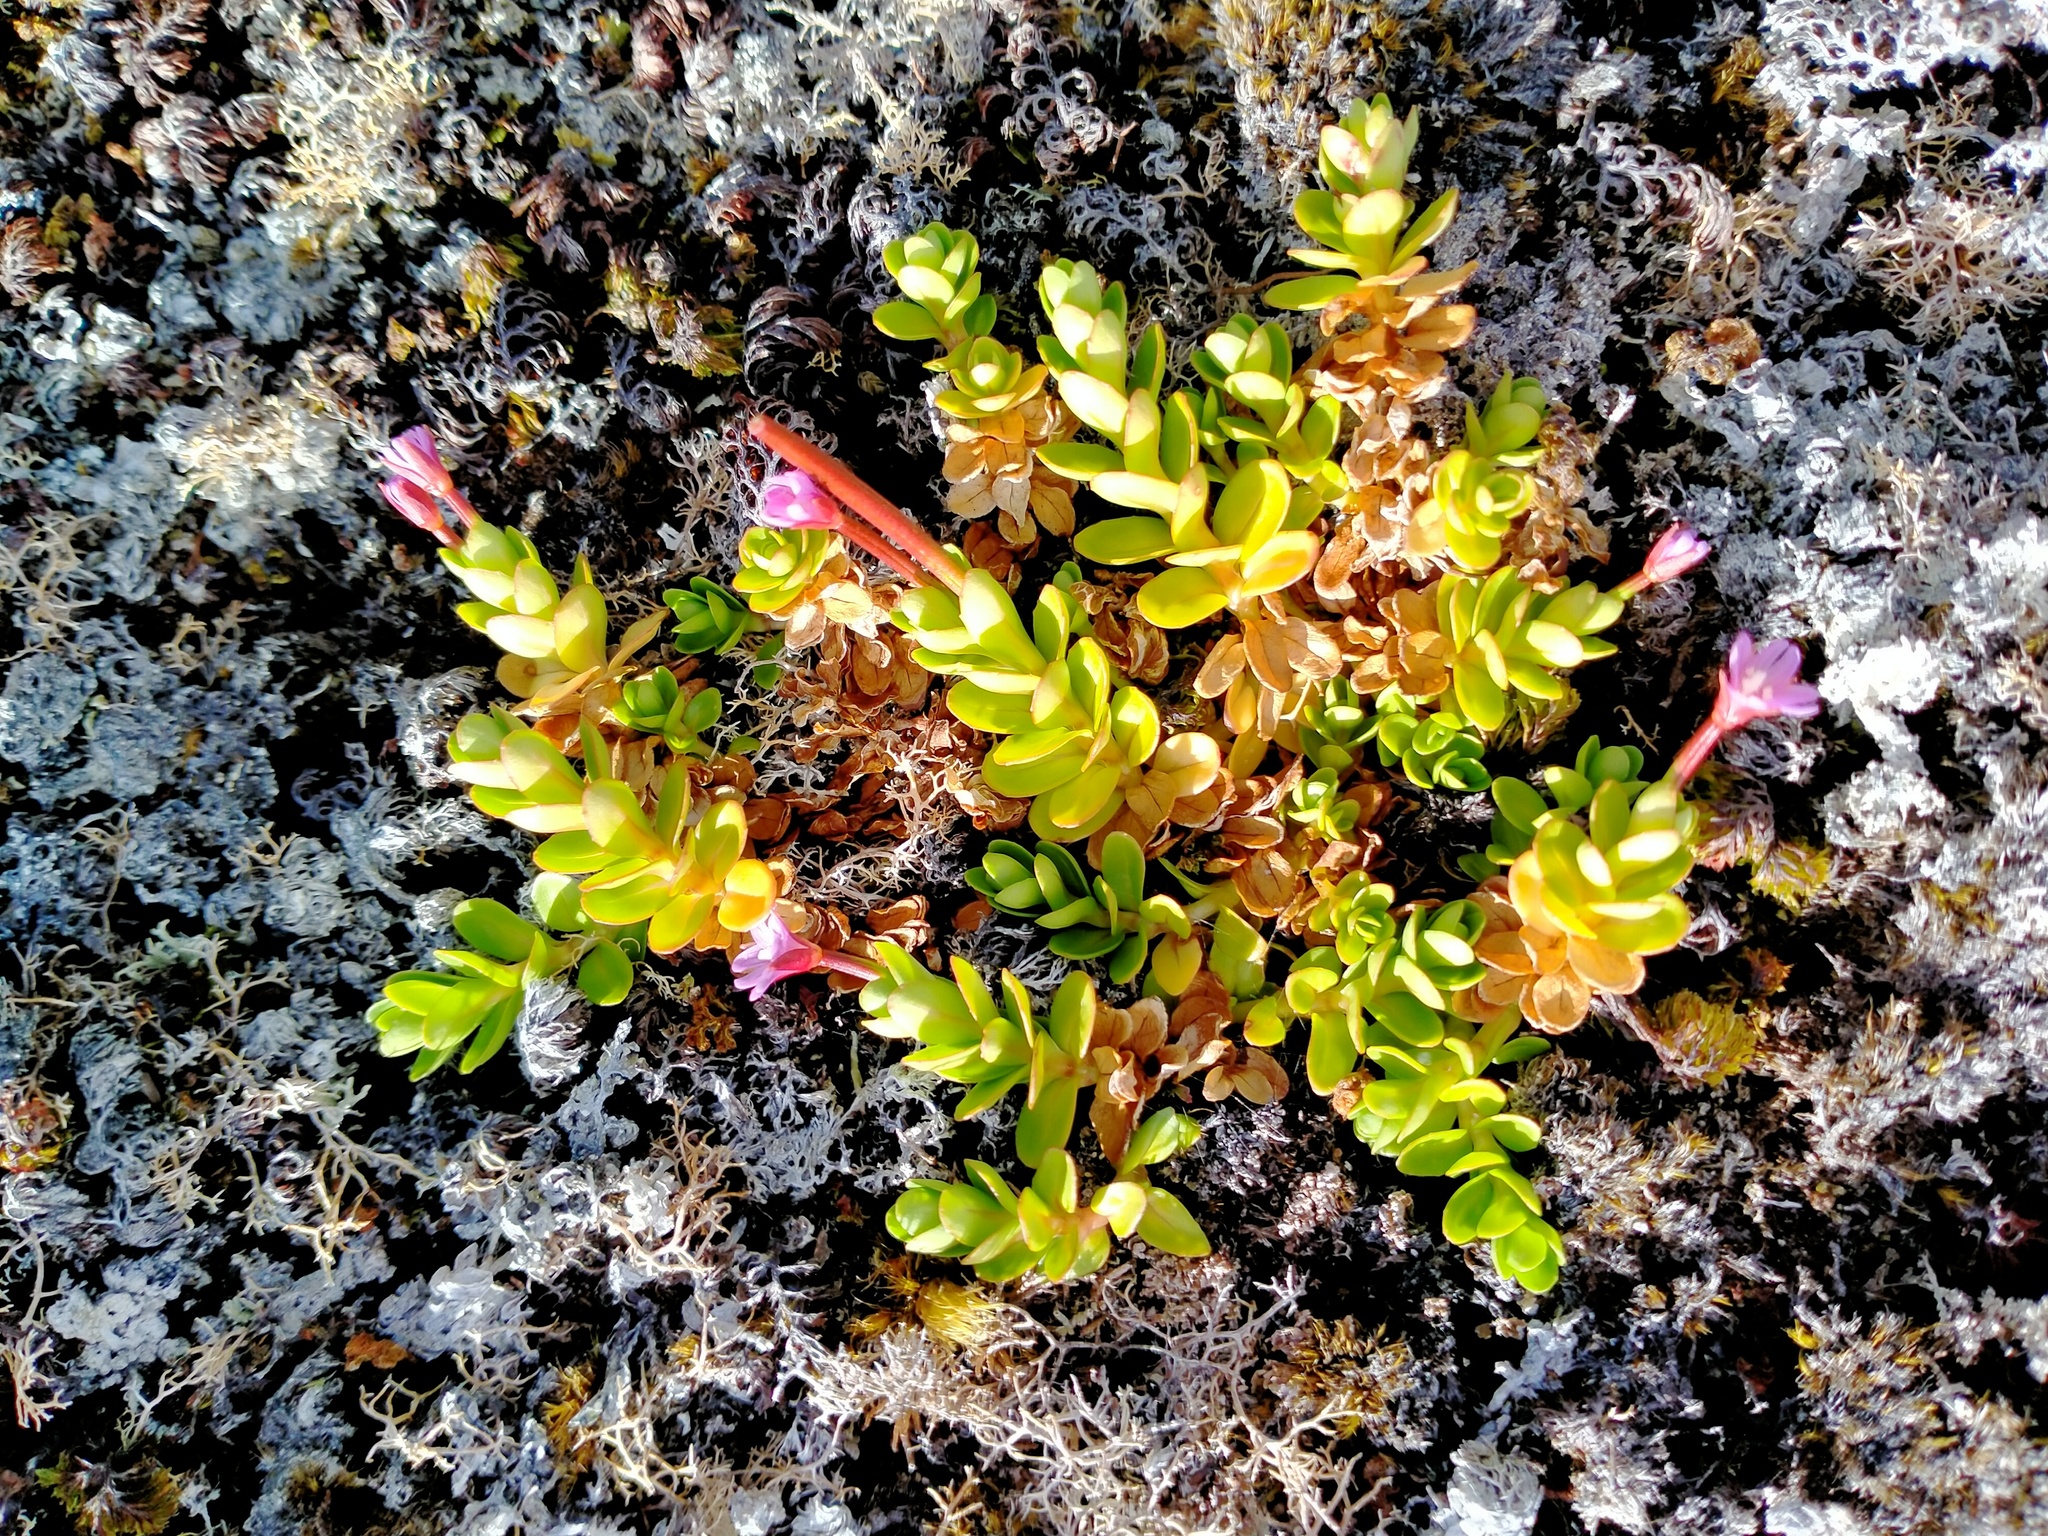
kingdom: Plantae
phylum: Tracheophyta
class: Magnoliopsida
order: Myrtales
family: Onagraceae
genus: Epilobium
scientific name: Epilobium confertifolium
